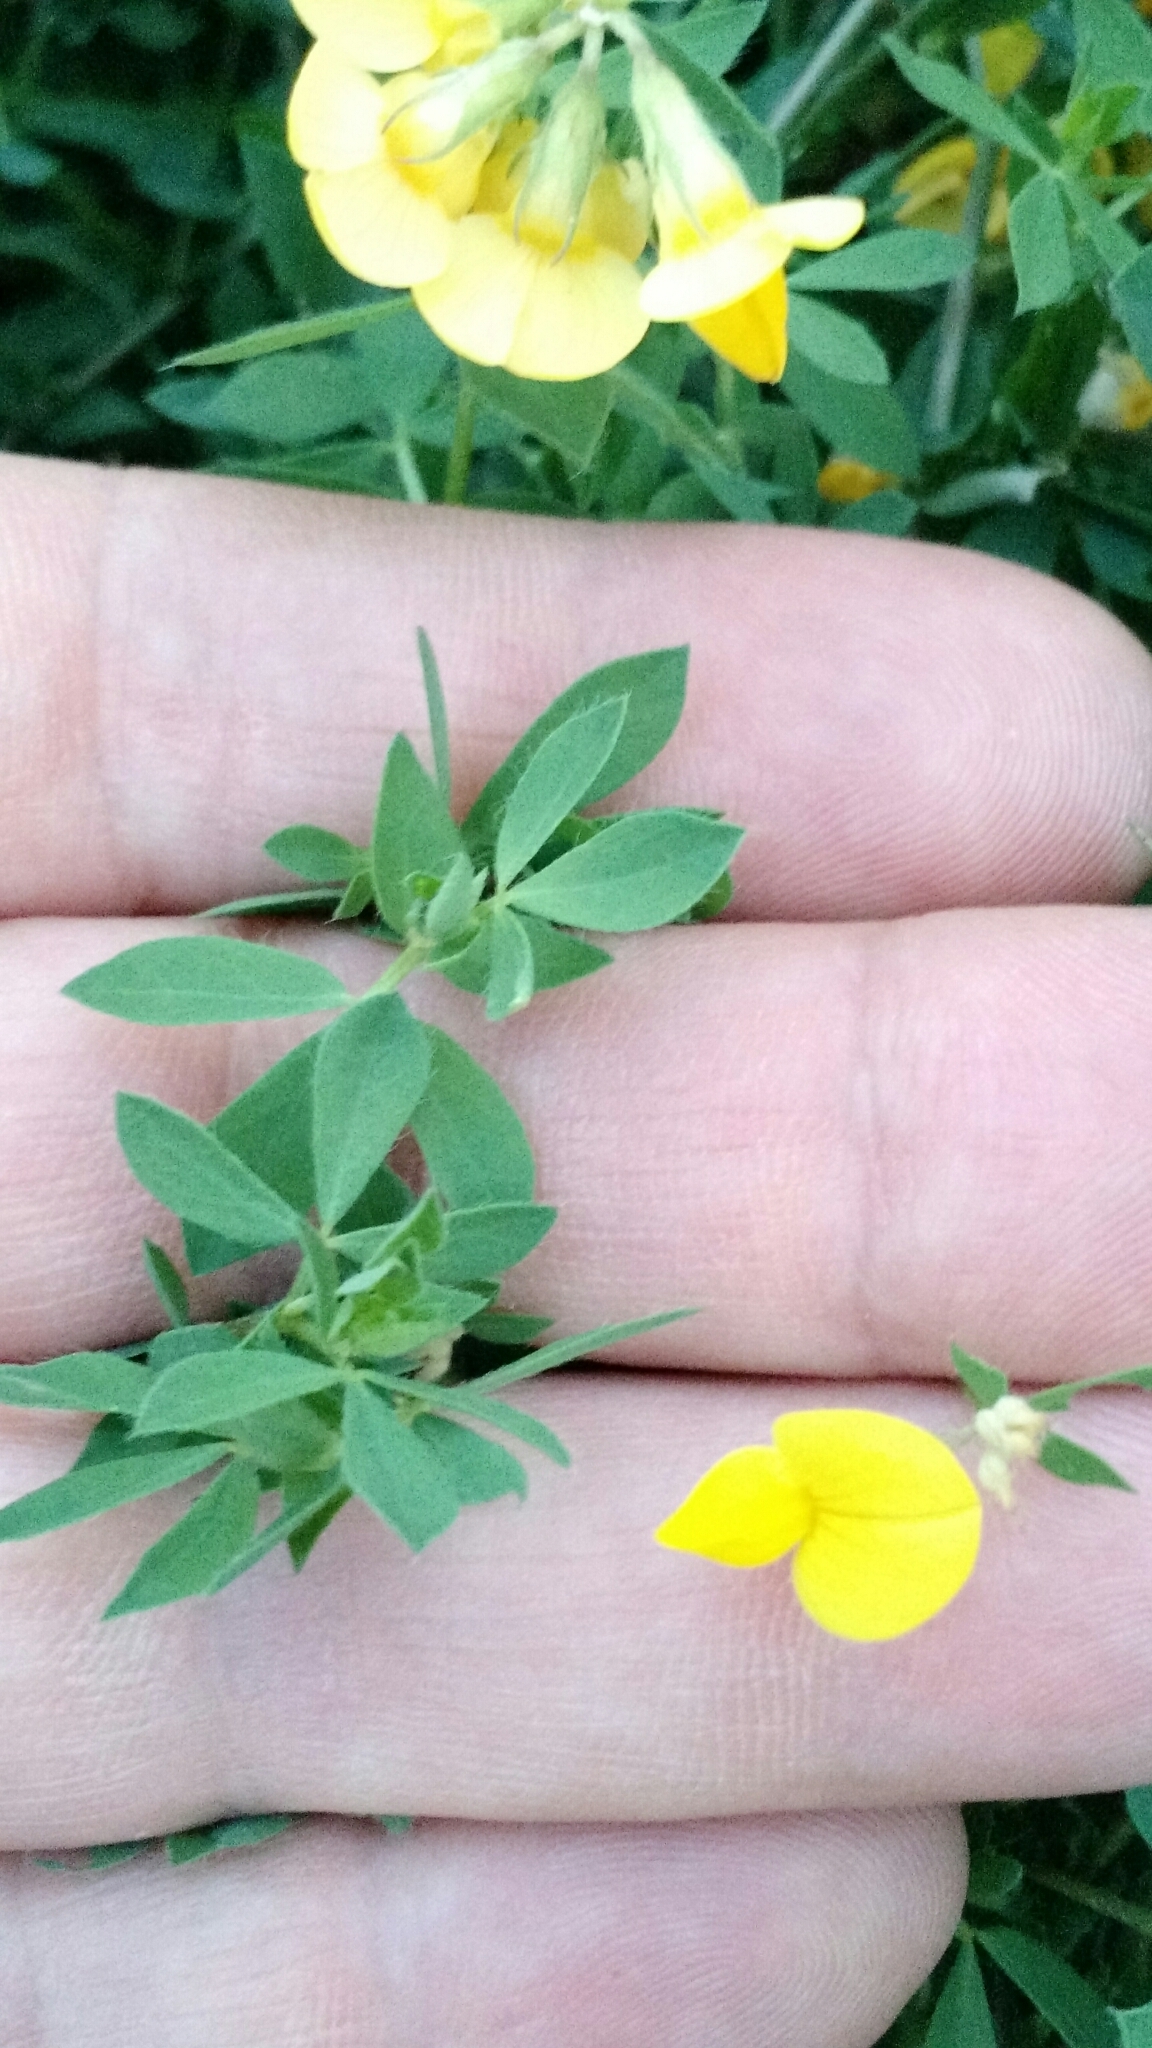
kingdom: Plantae
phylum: Tracheophyta
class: Magnoliopsida
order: Fabales
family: Fabaceae
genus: Lotus
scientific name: Lotus corniculatus
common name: Common bird's-foot-trefoil
